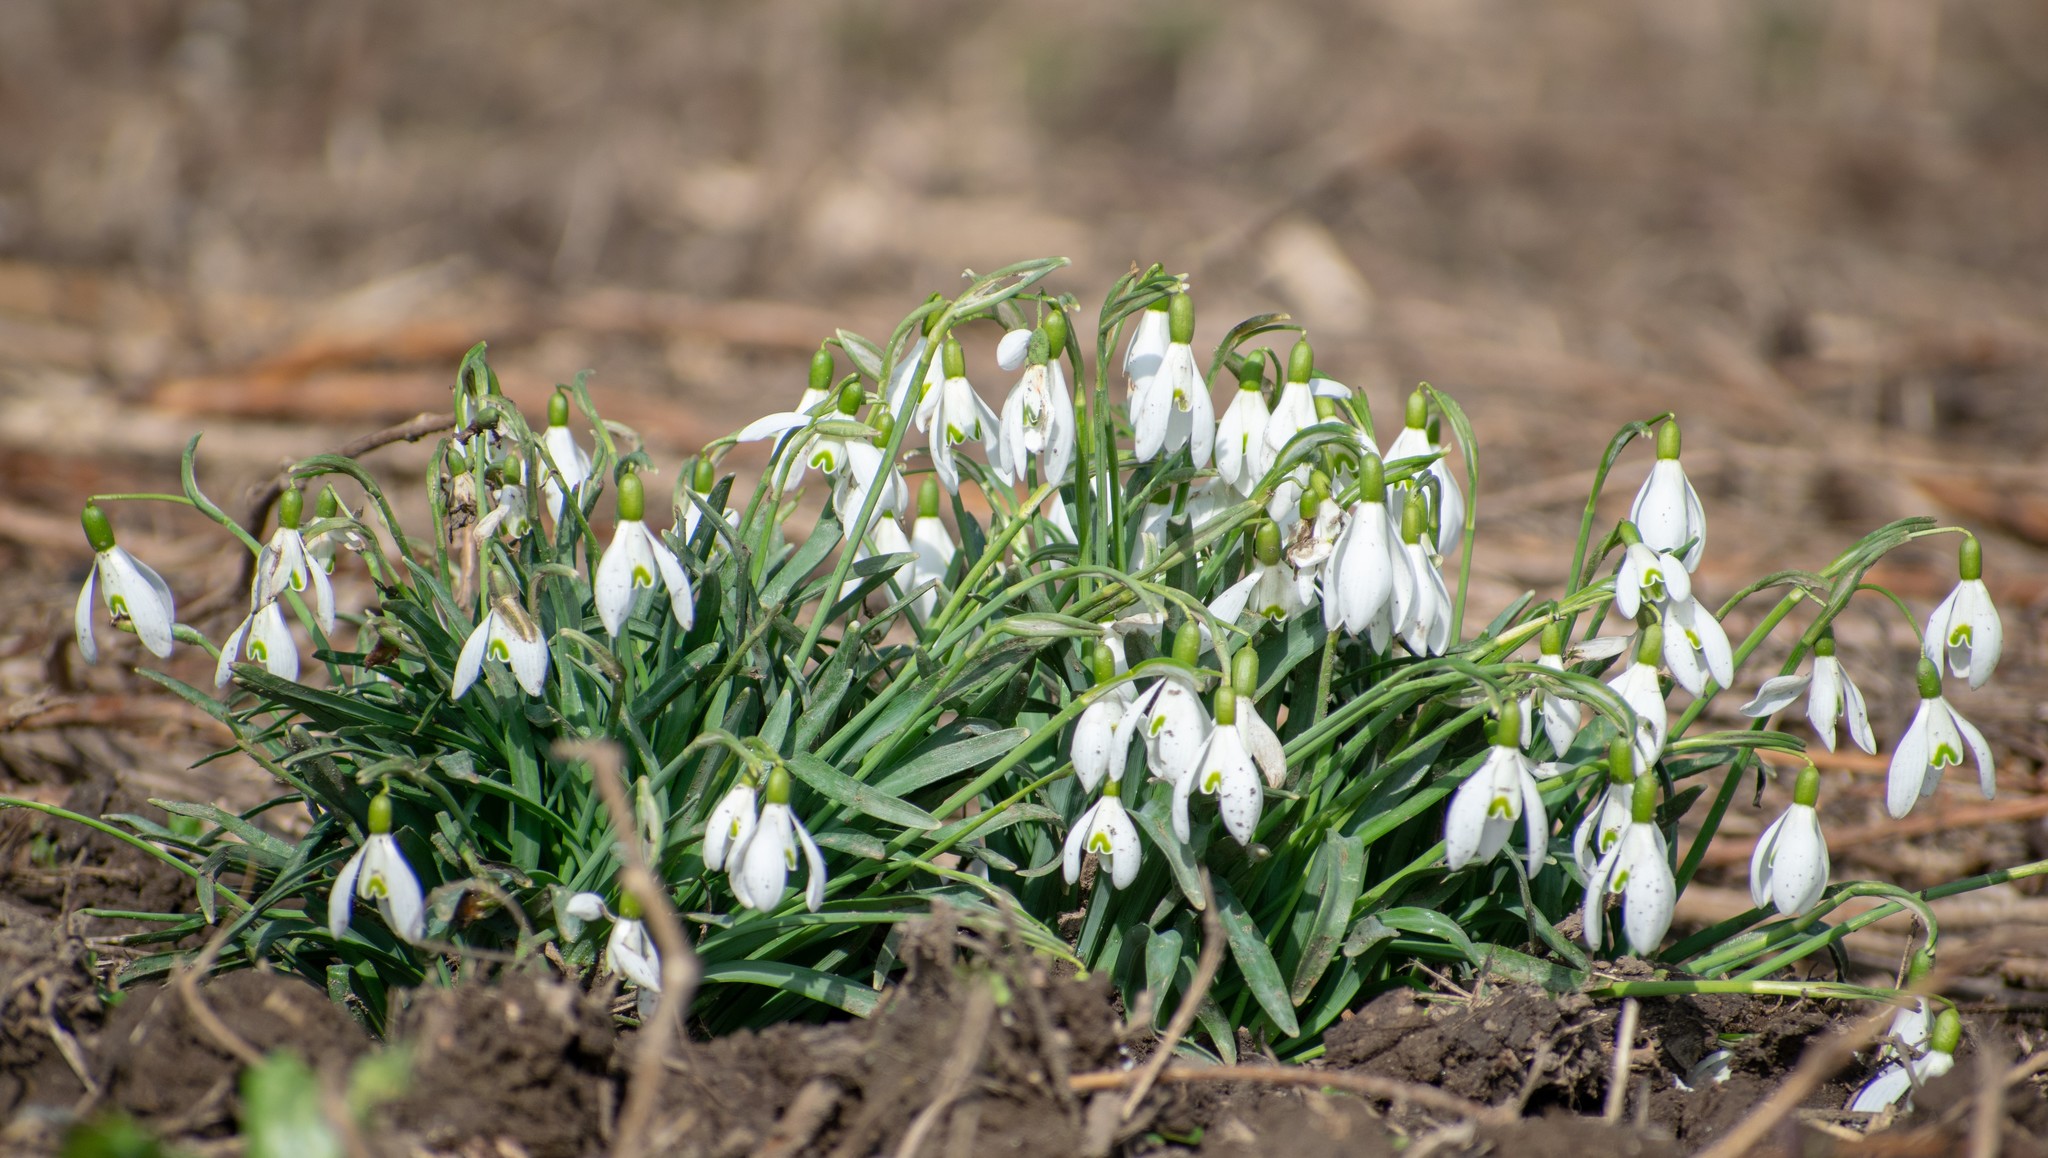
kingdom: Plantae
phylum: Tracheophyta
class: Liliopsida
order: Asparagales
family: Amaryllidaceae
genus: Galanthus
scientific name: Galanthus nivalis
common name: Snowdrop
